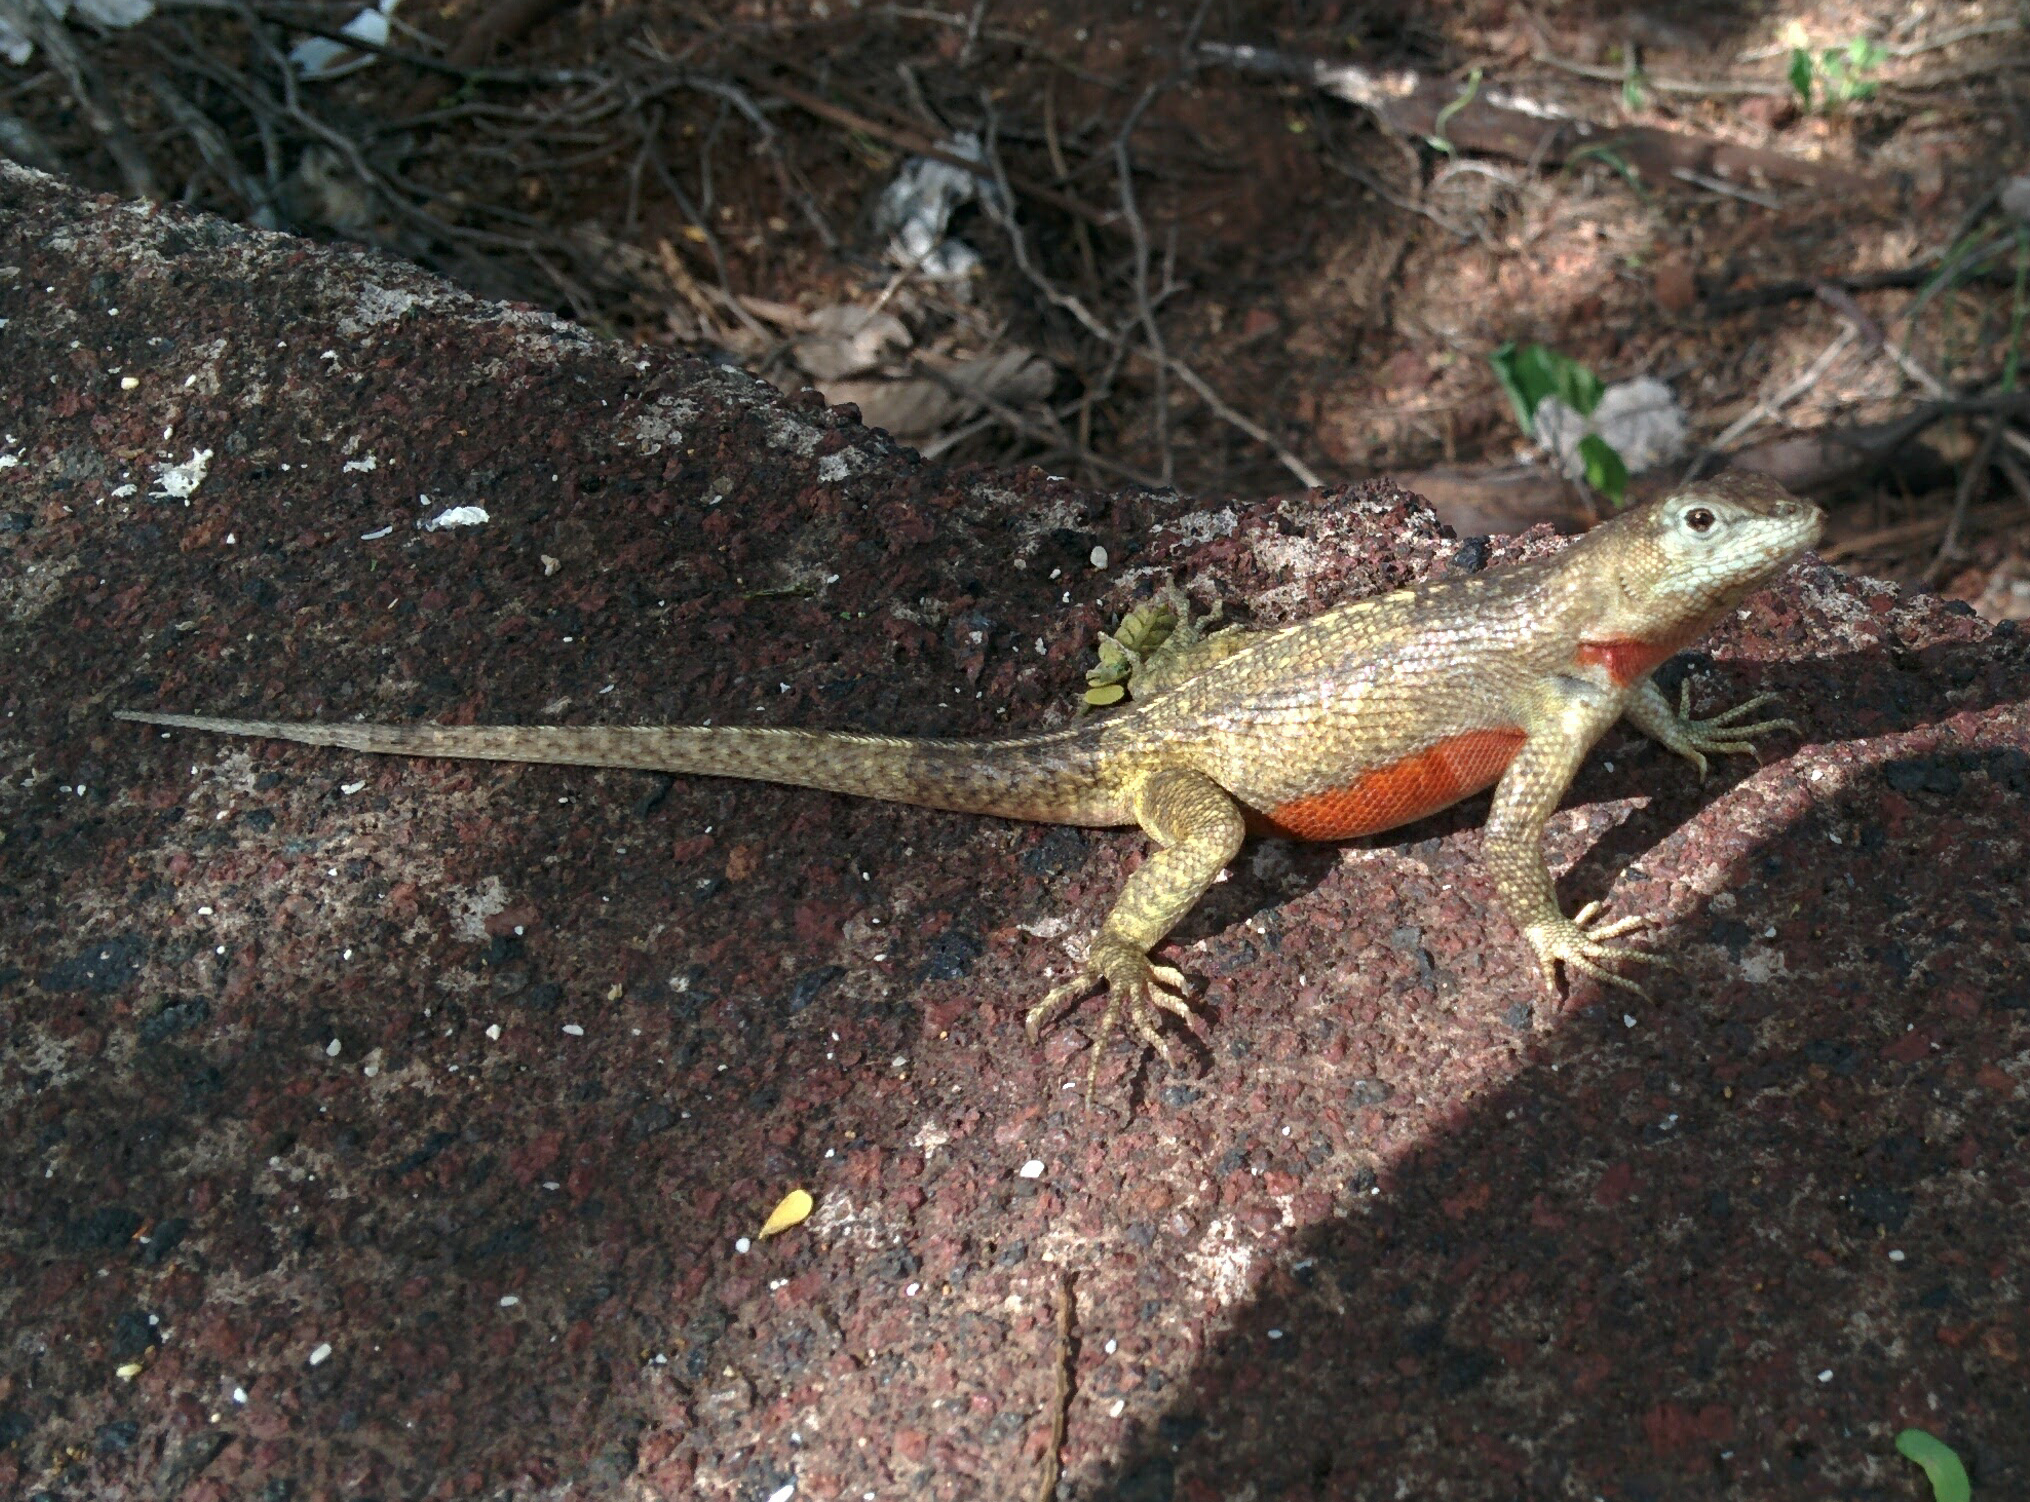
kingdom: Animalia
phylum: Chordata
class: Squamata
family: Tropiduridae
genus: Microlophus
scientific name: Microlophus bivittatus
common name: San cristobal lava lizard
